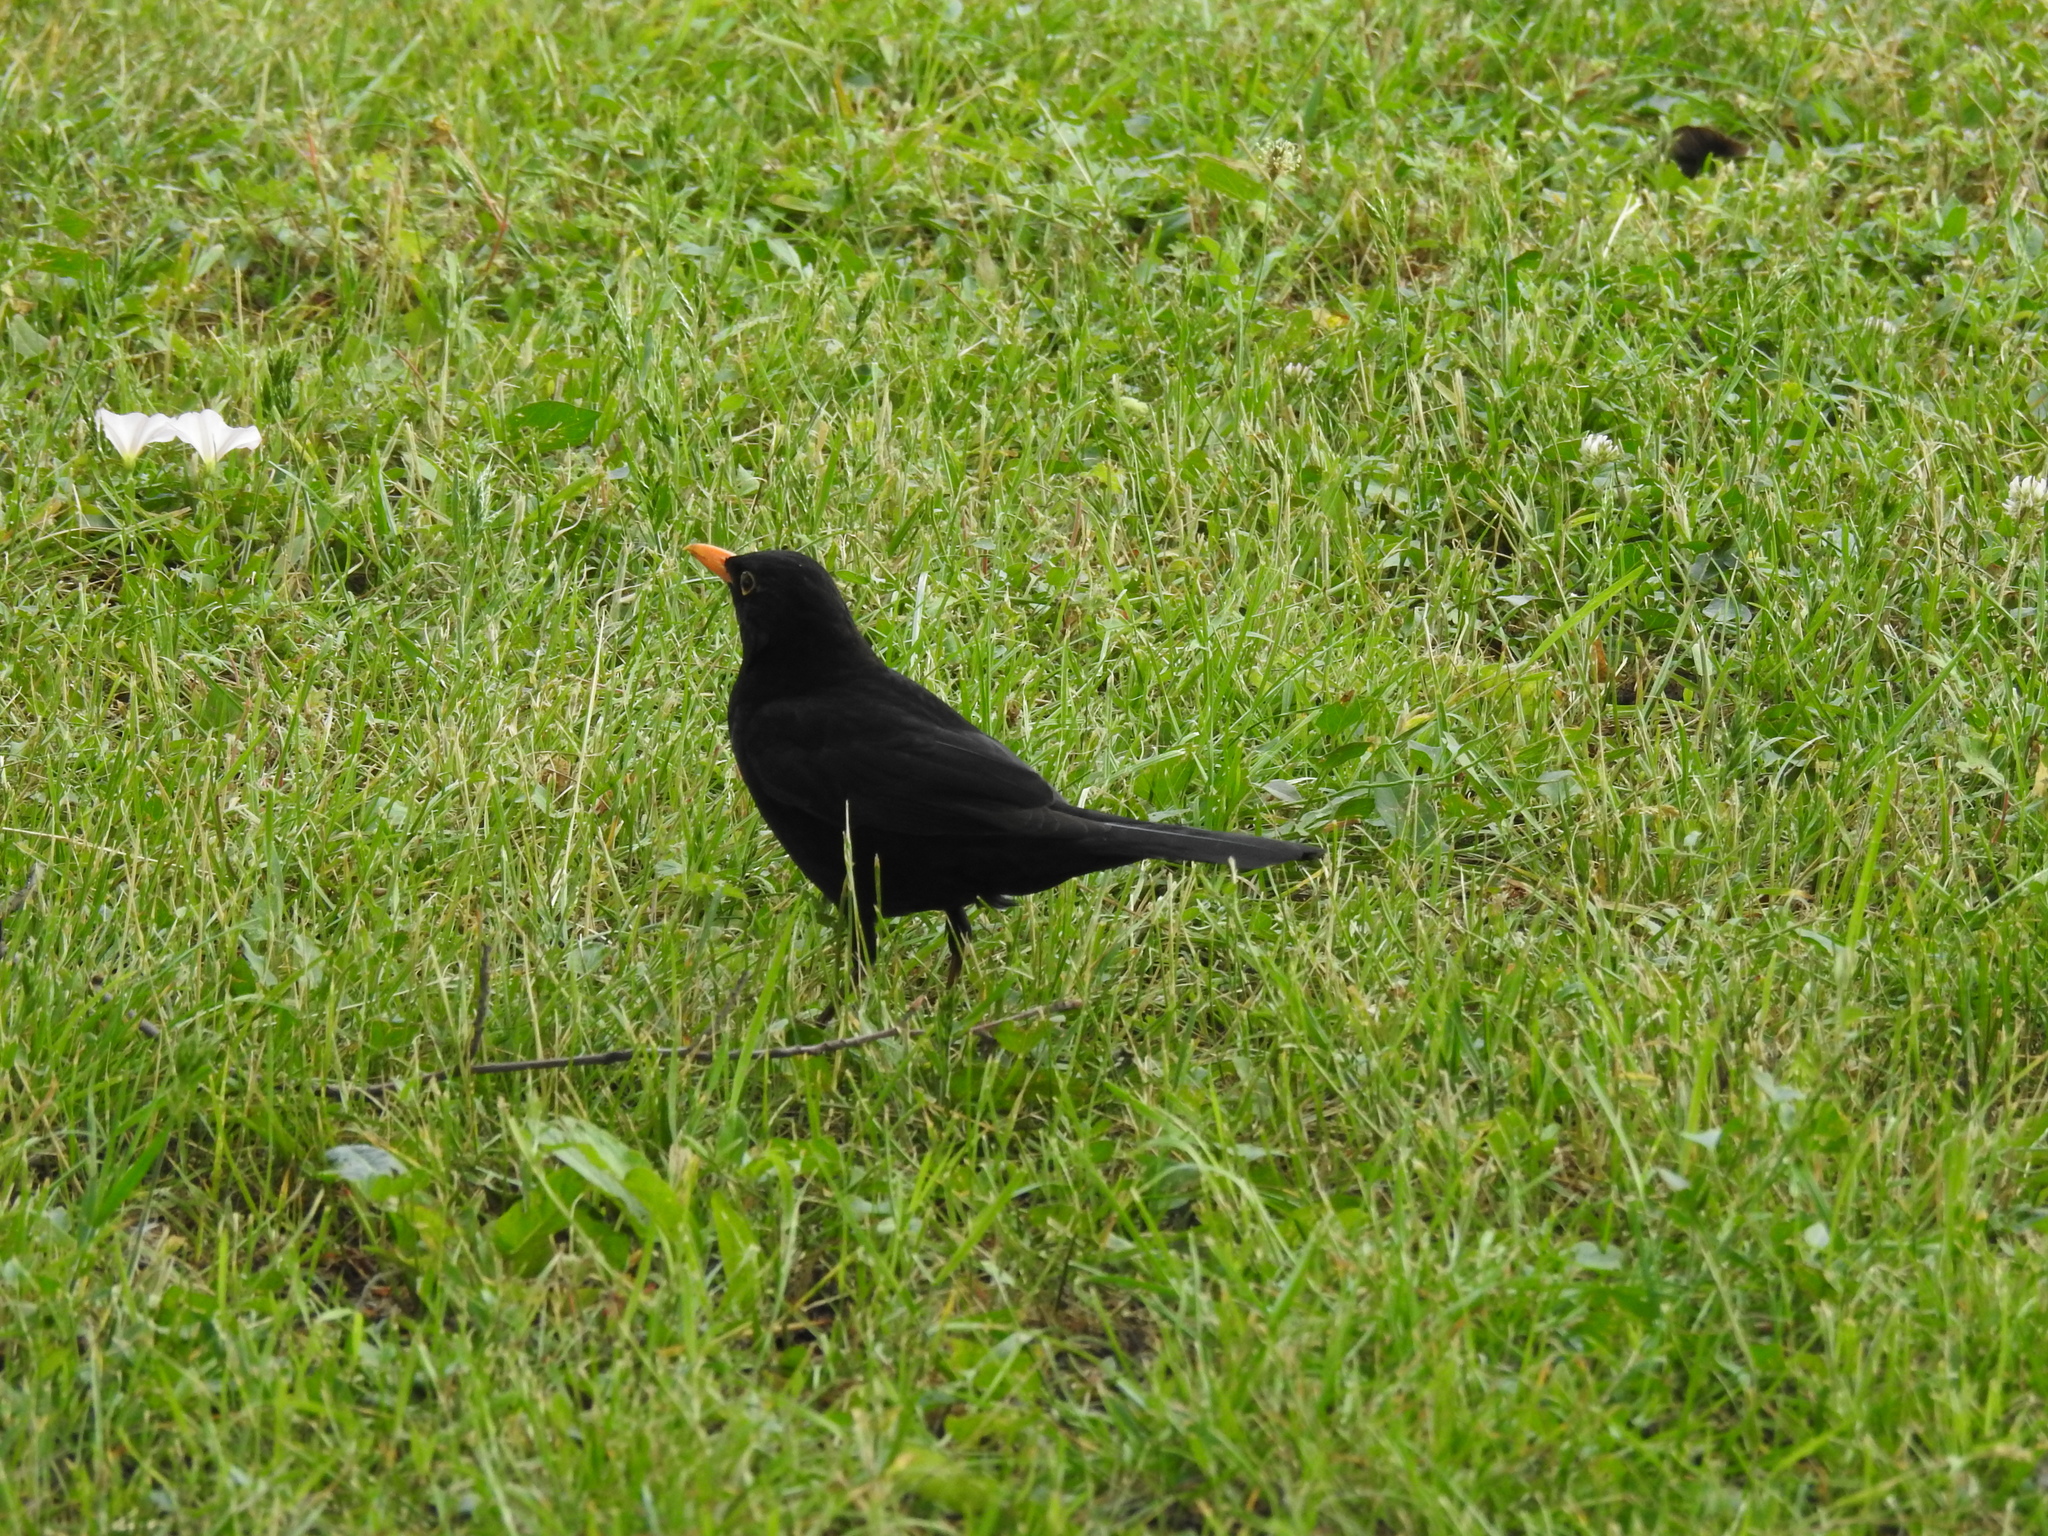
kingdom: Animalia
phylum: Chordata
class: Aves
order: Passeriformes
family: Turdidae
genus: Turdus
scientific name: Turdus merula
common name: Common blackbird
